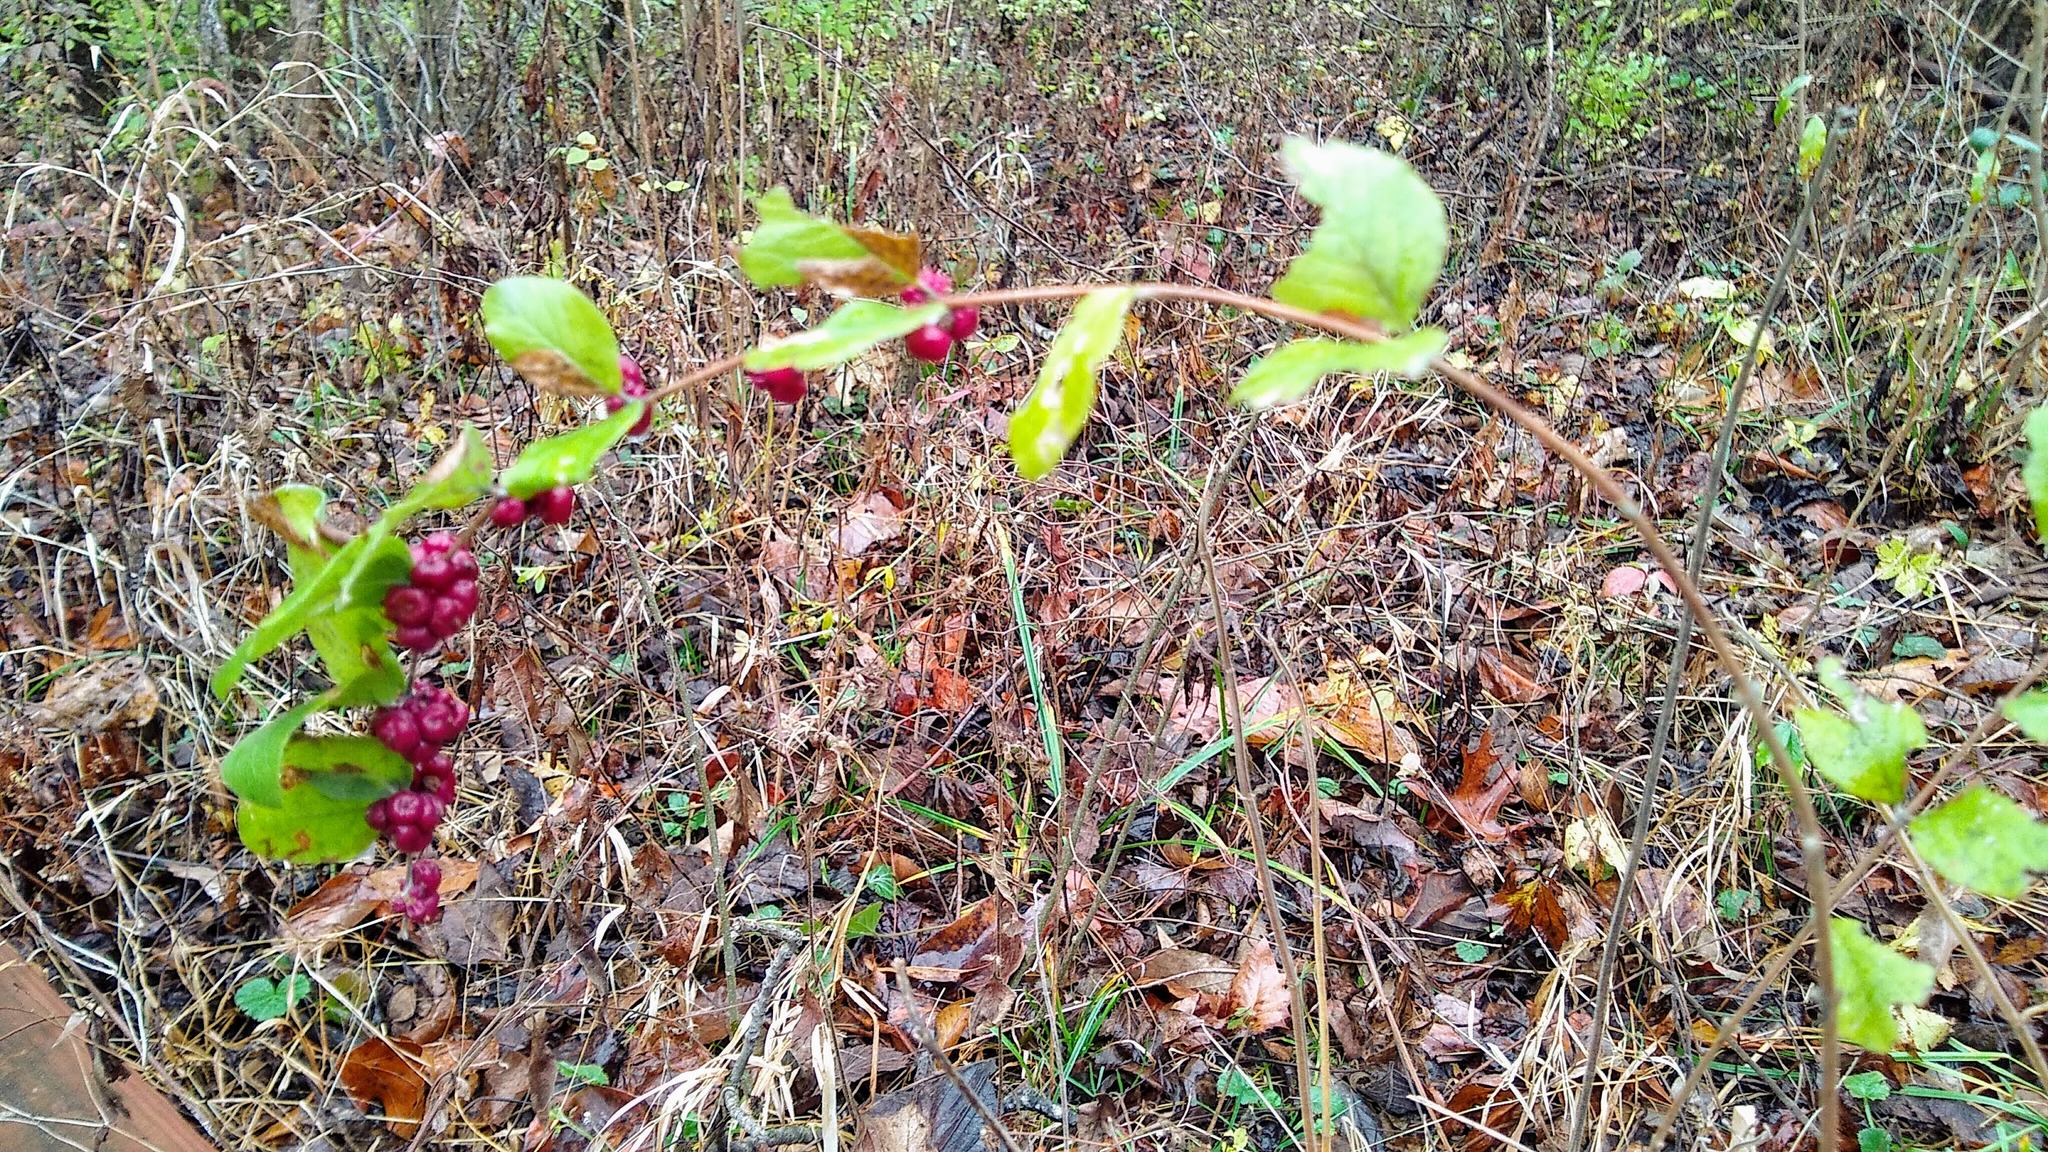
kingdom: Plantae
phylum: Tracheophyta
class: Magnoliopsida
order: Dipsacales
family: Caprifoliaceae
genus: Symphoricarpos
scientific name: Symphoricarpos orbiculatus
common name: Coralberry
